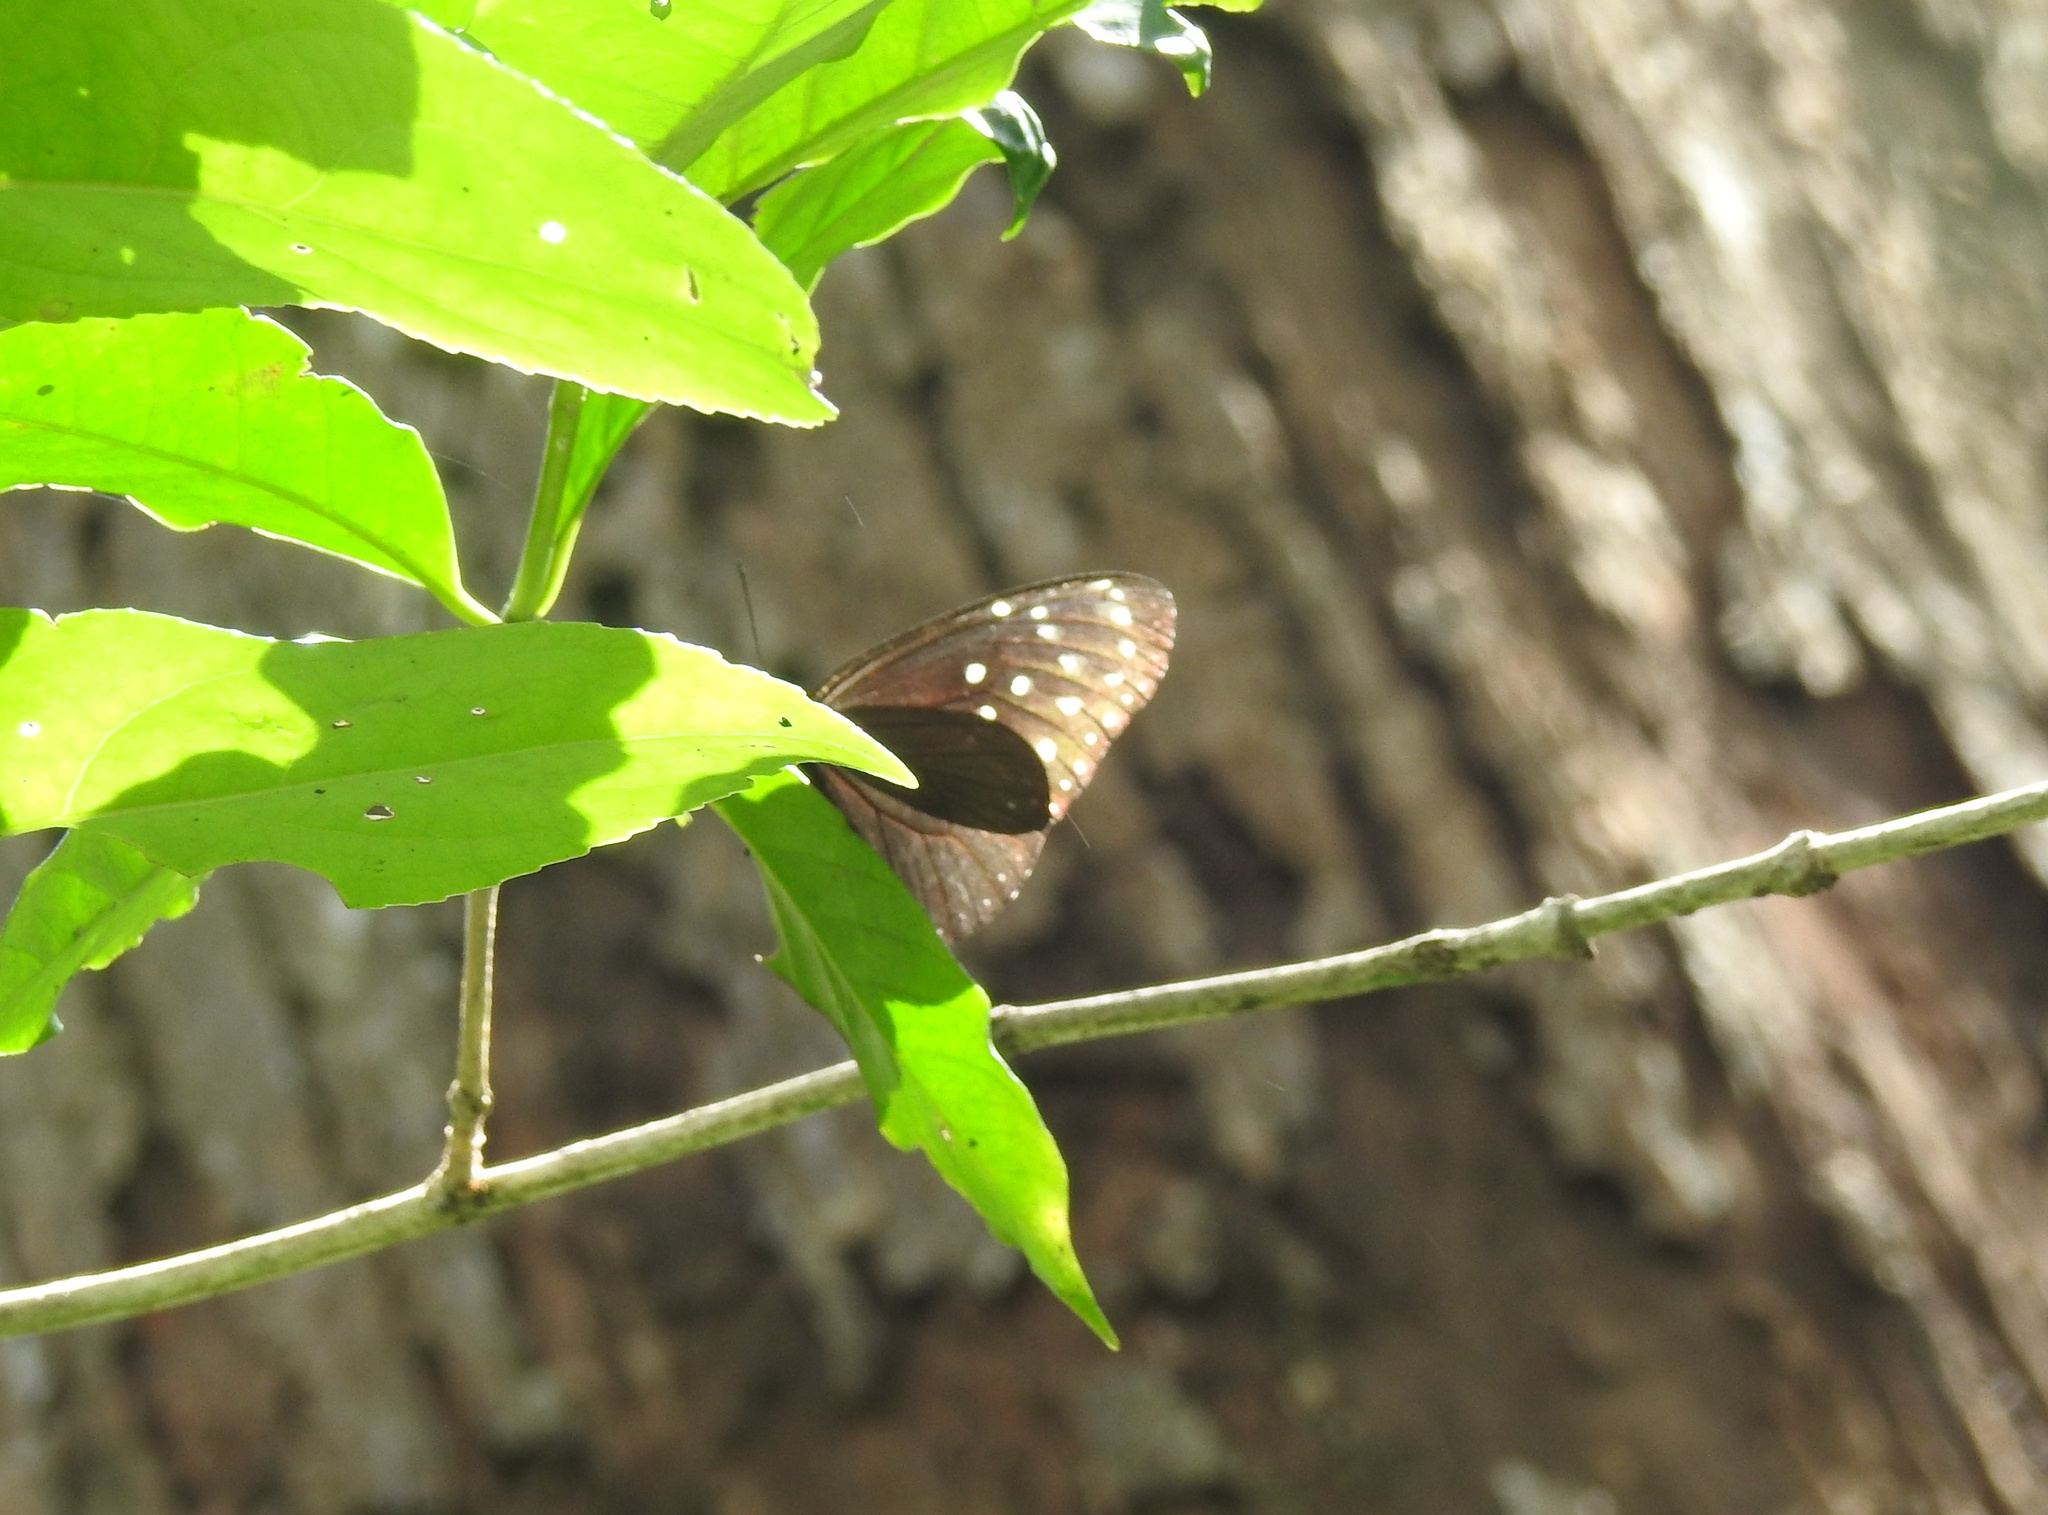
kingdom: Animalia
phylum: Arthropoda
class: Insecta
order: Lepidoptera
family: Nymphalidae
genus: Euploea
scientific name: Euploea mulciber
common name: Striped blue crow butterfly
